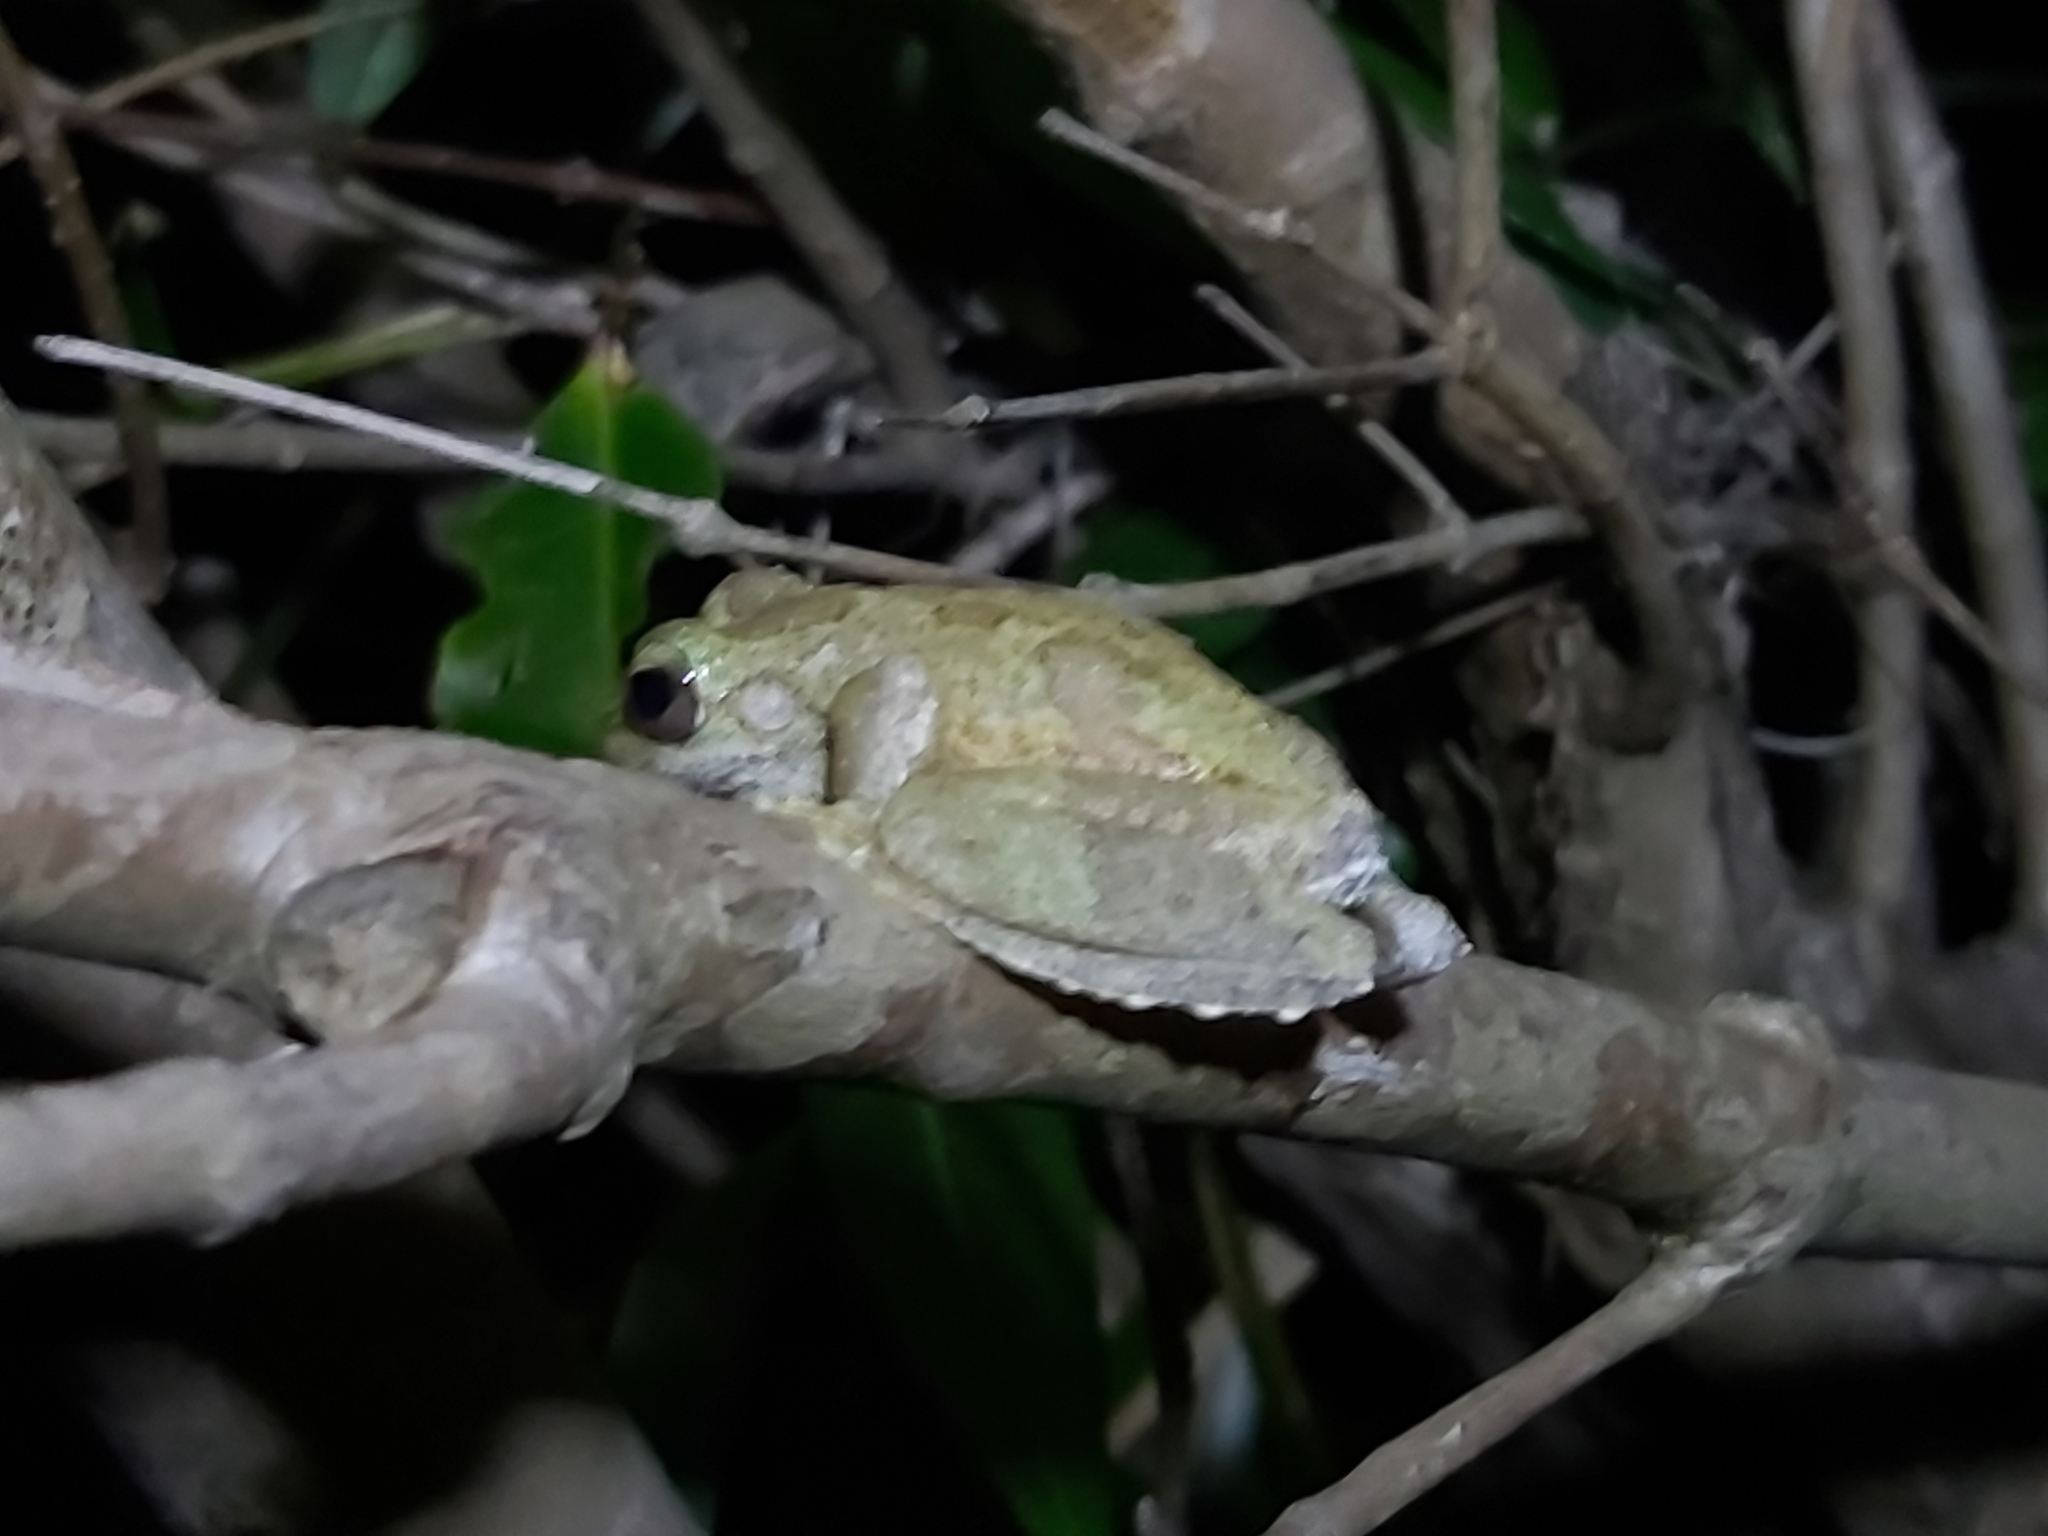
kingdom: Animalia
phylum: Chordata
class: Amphibia
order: Anura
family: Hylidae
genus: Ranoidea
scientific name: Ranoidea
